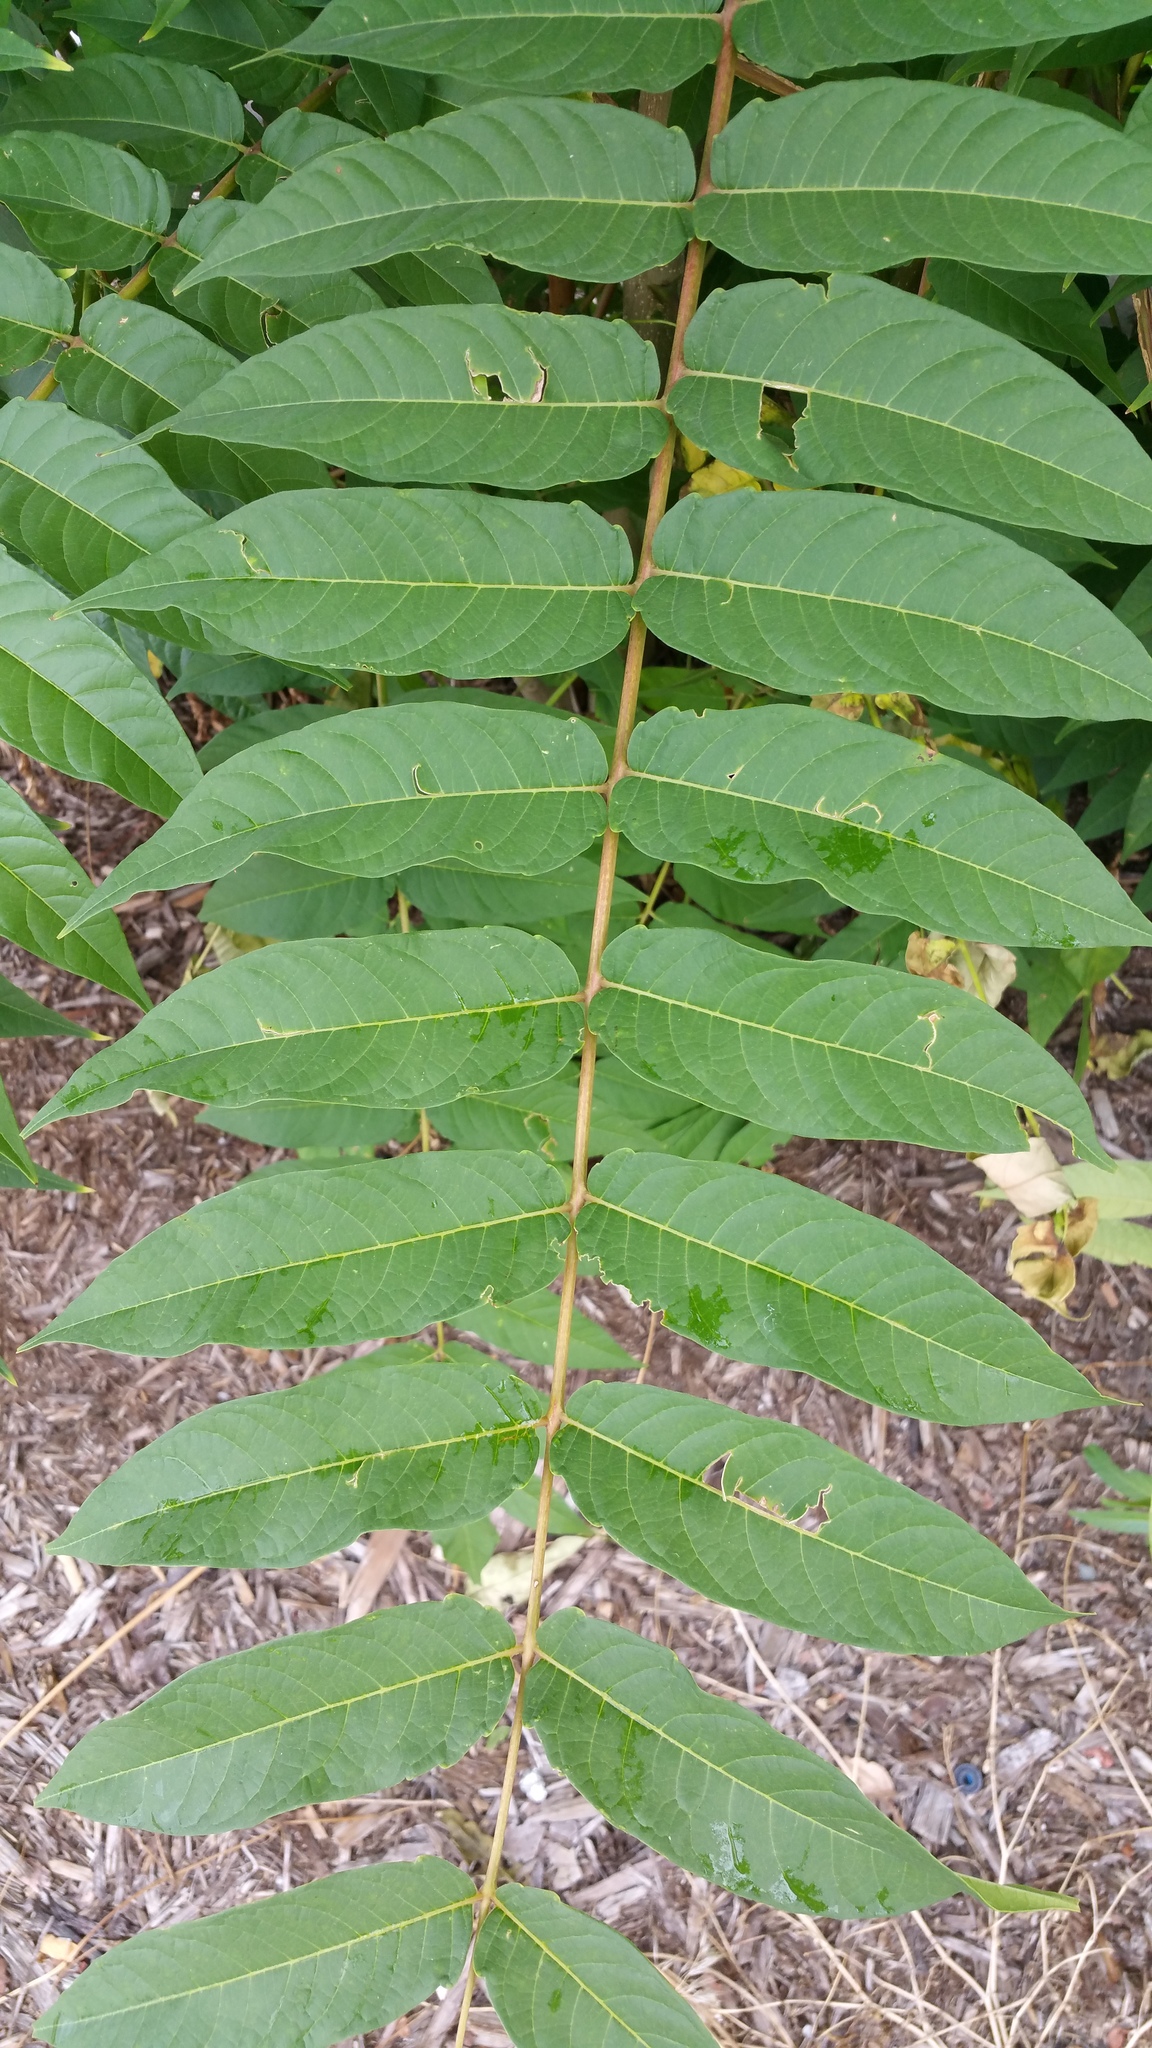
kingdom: Plantae
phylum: Tracheophyta
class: Magnoliopsida
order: Sapindales
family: Simaroubaceae
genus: Ailanthus
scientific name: Ailanthus altissima
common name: Tree-of-heaven
